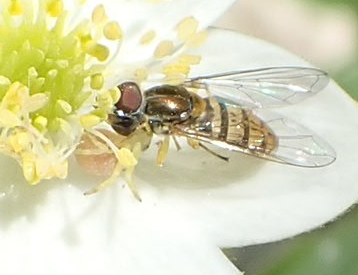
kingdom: Animalia
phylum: Arthropoda
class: Insecta
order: Diptera
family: Syrphidae
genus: Toxomerus
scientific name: Toxomerus marginatus
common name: Syrphid fly
